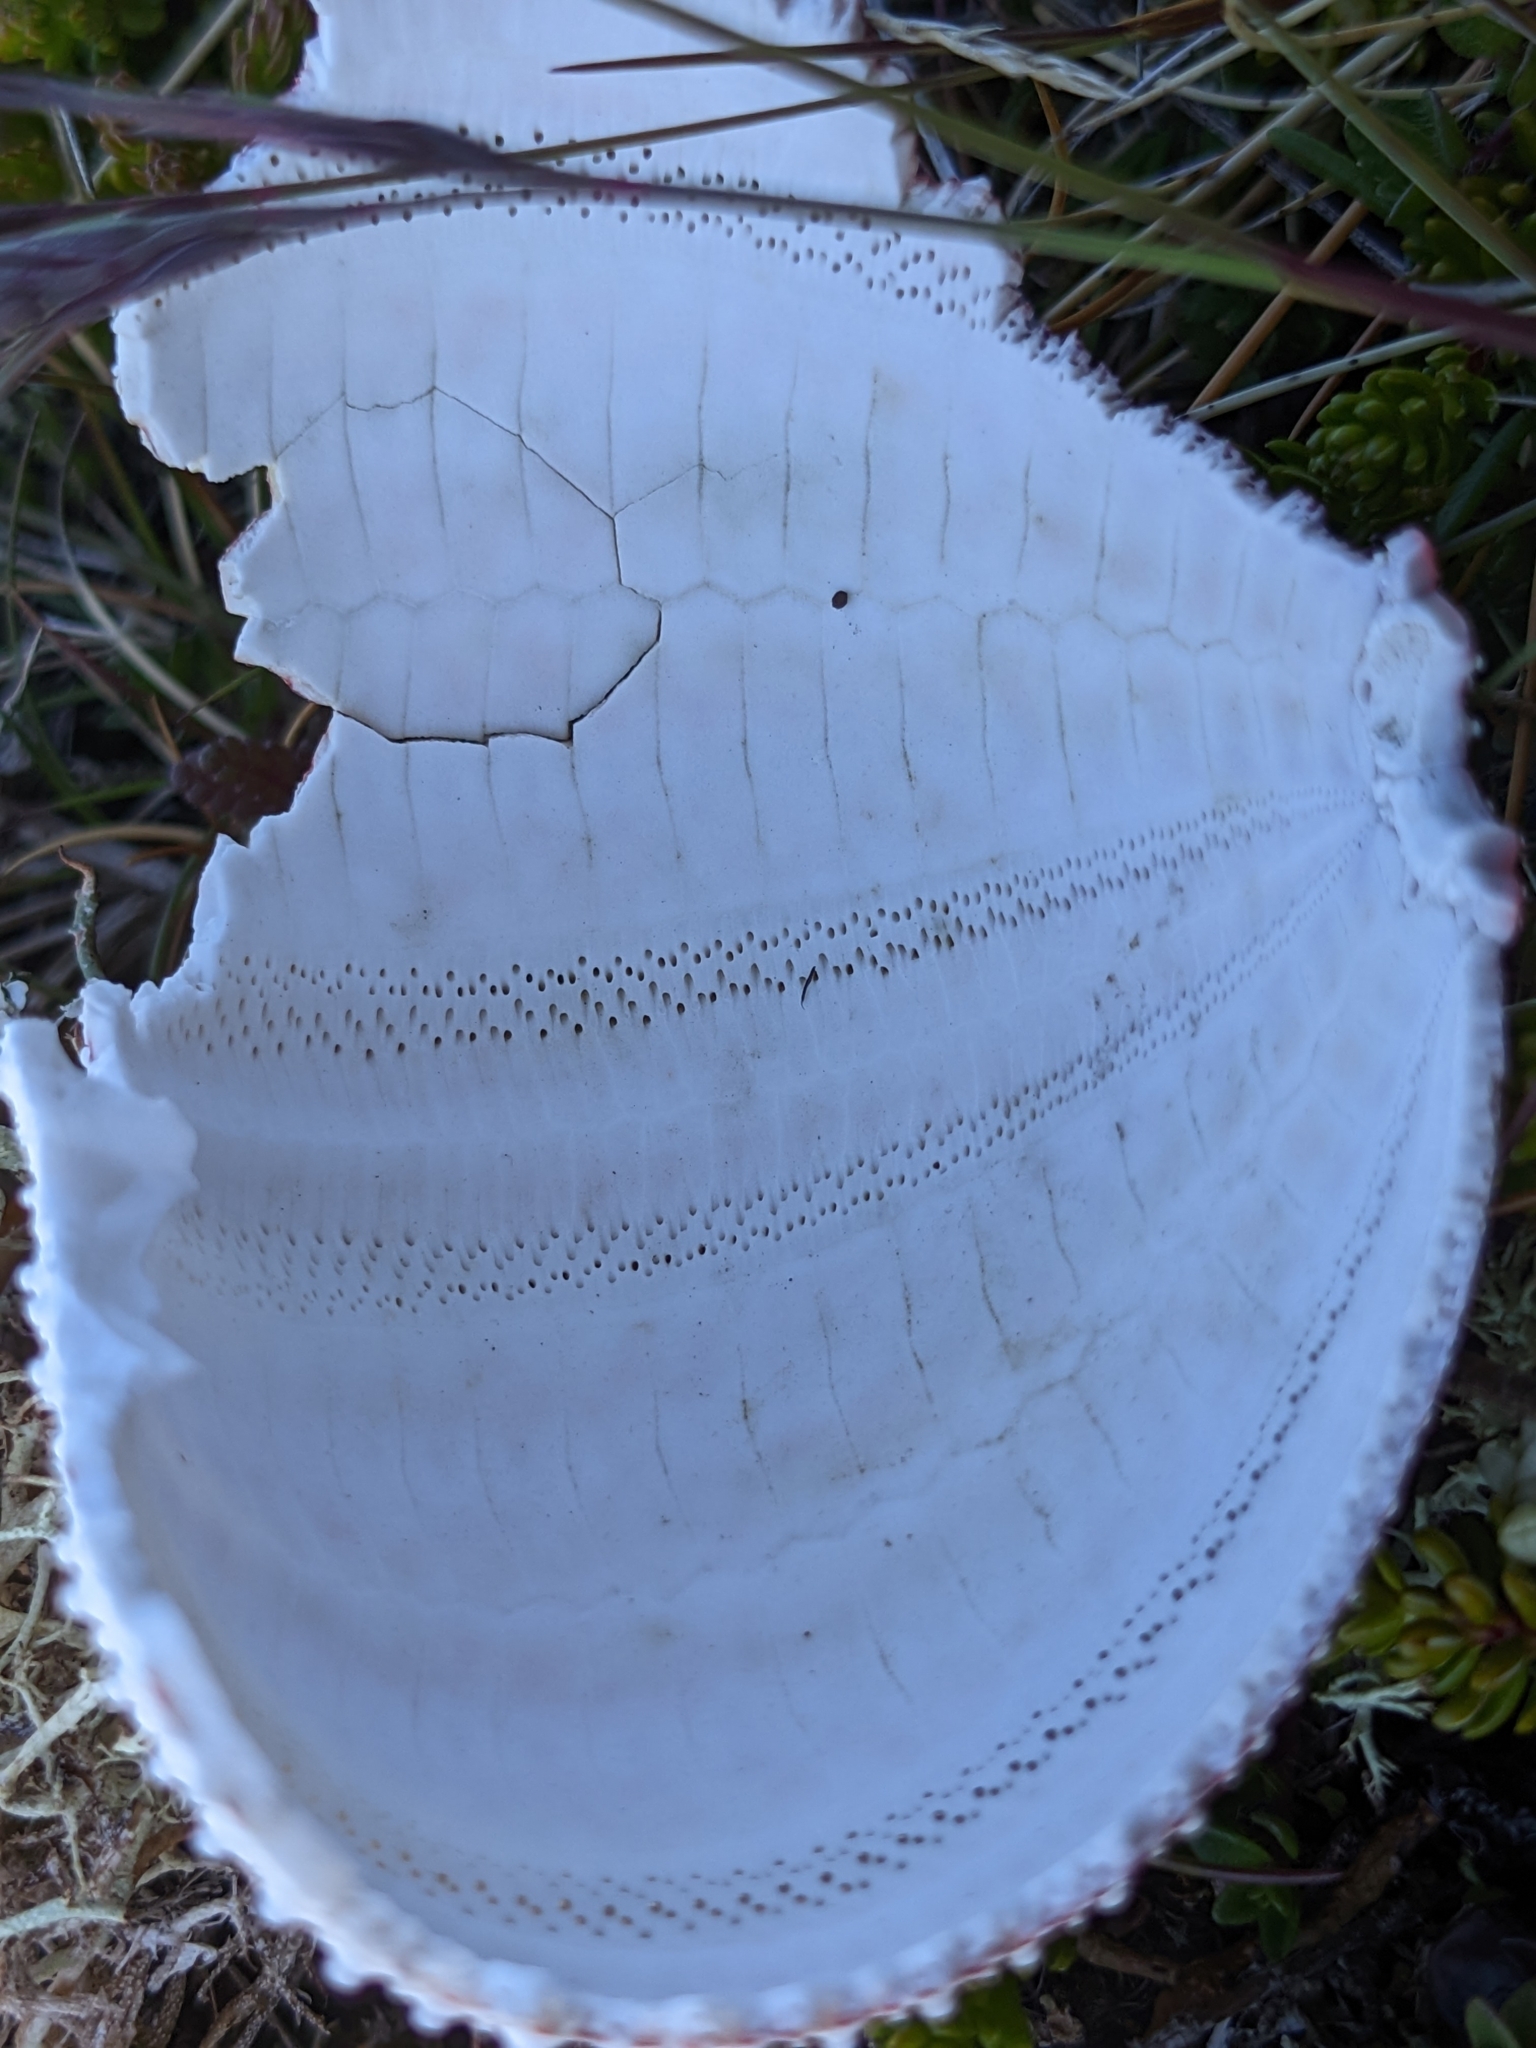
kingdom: Animalia
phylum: Echinodermata
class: Echinoidea
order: Camarodonta
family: Echinidae
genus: Echinus
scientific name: Echinus esculentus
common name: Edible sea urchin
